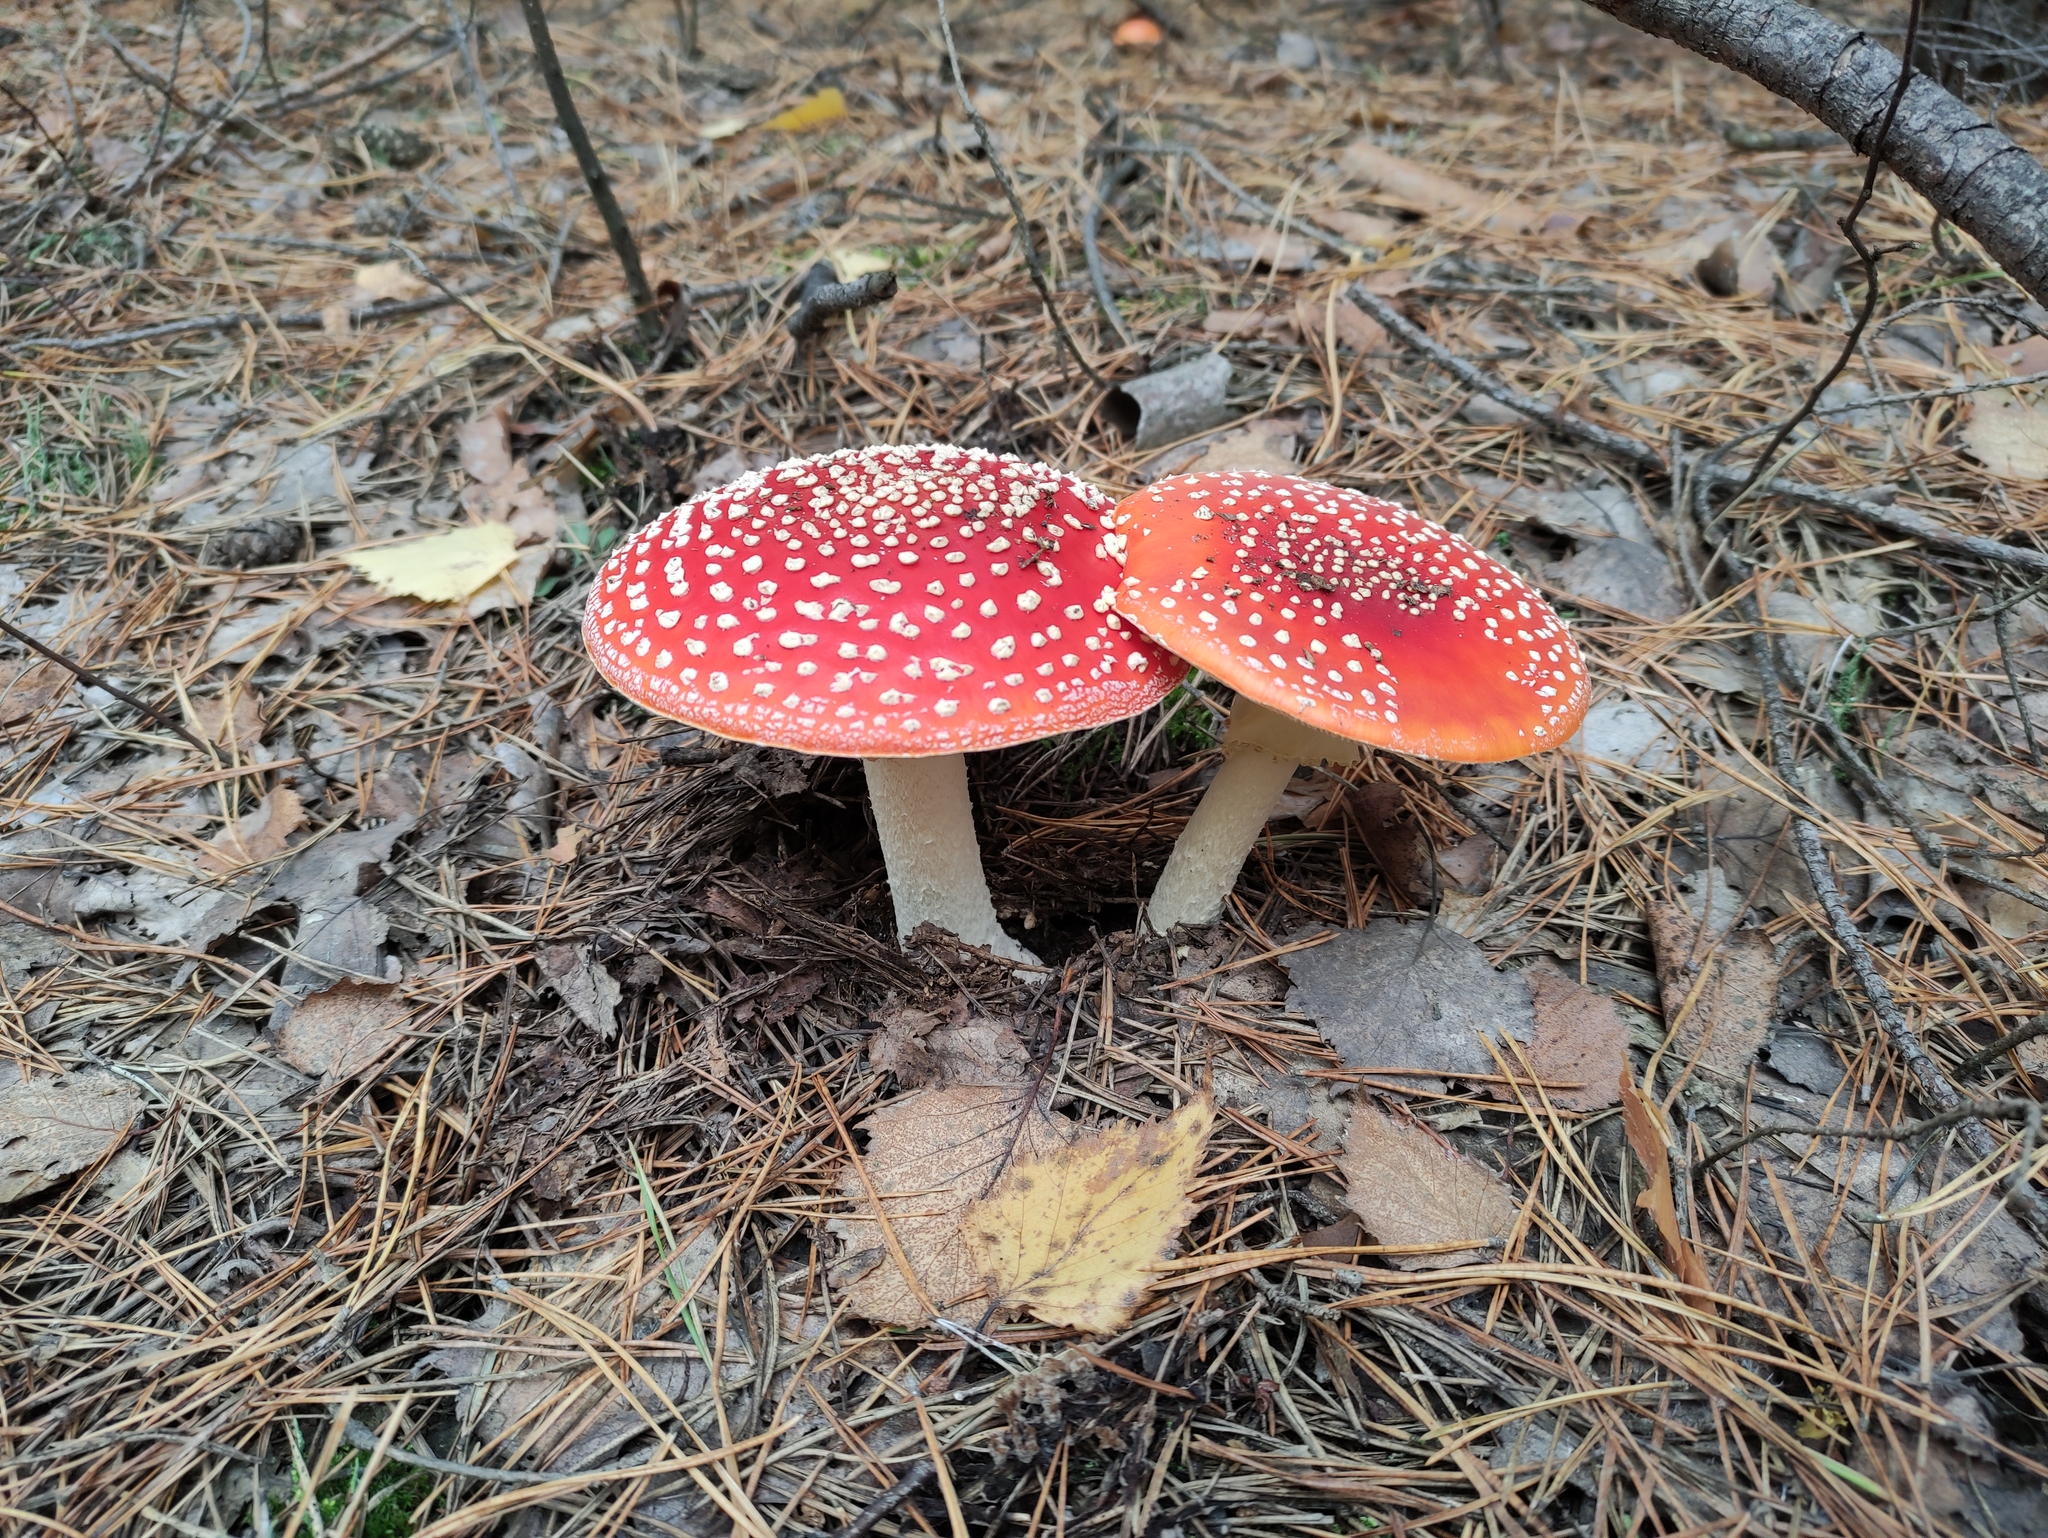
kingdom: Fungi
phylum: Basidiomycota
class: Agaricomycetes
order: Agaricales
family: Amanitaceae
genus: Amanita
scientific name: Amanita muscaria
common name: Fly agaric
